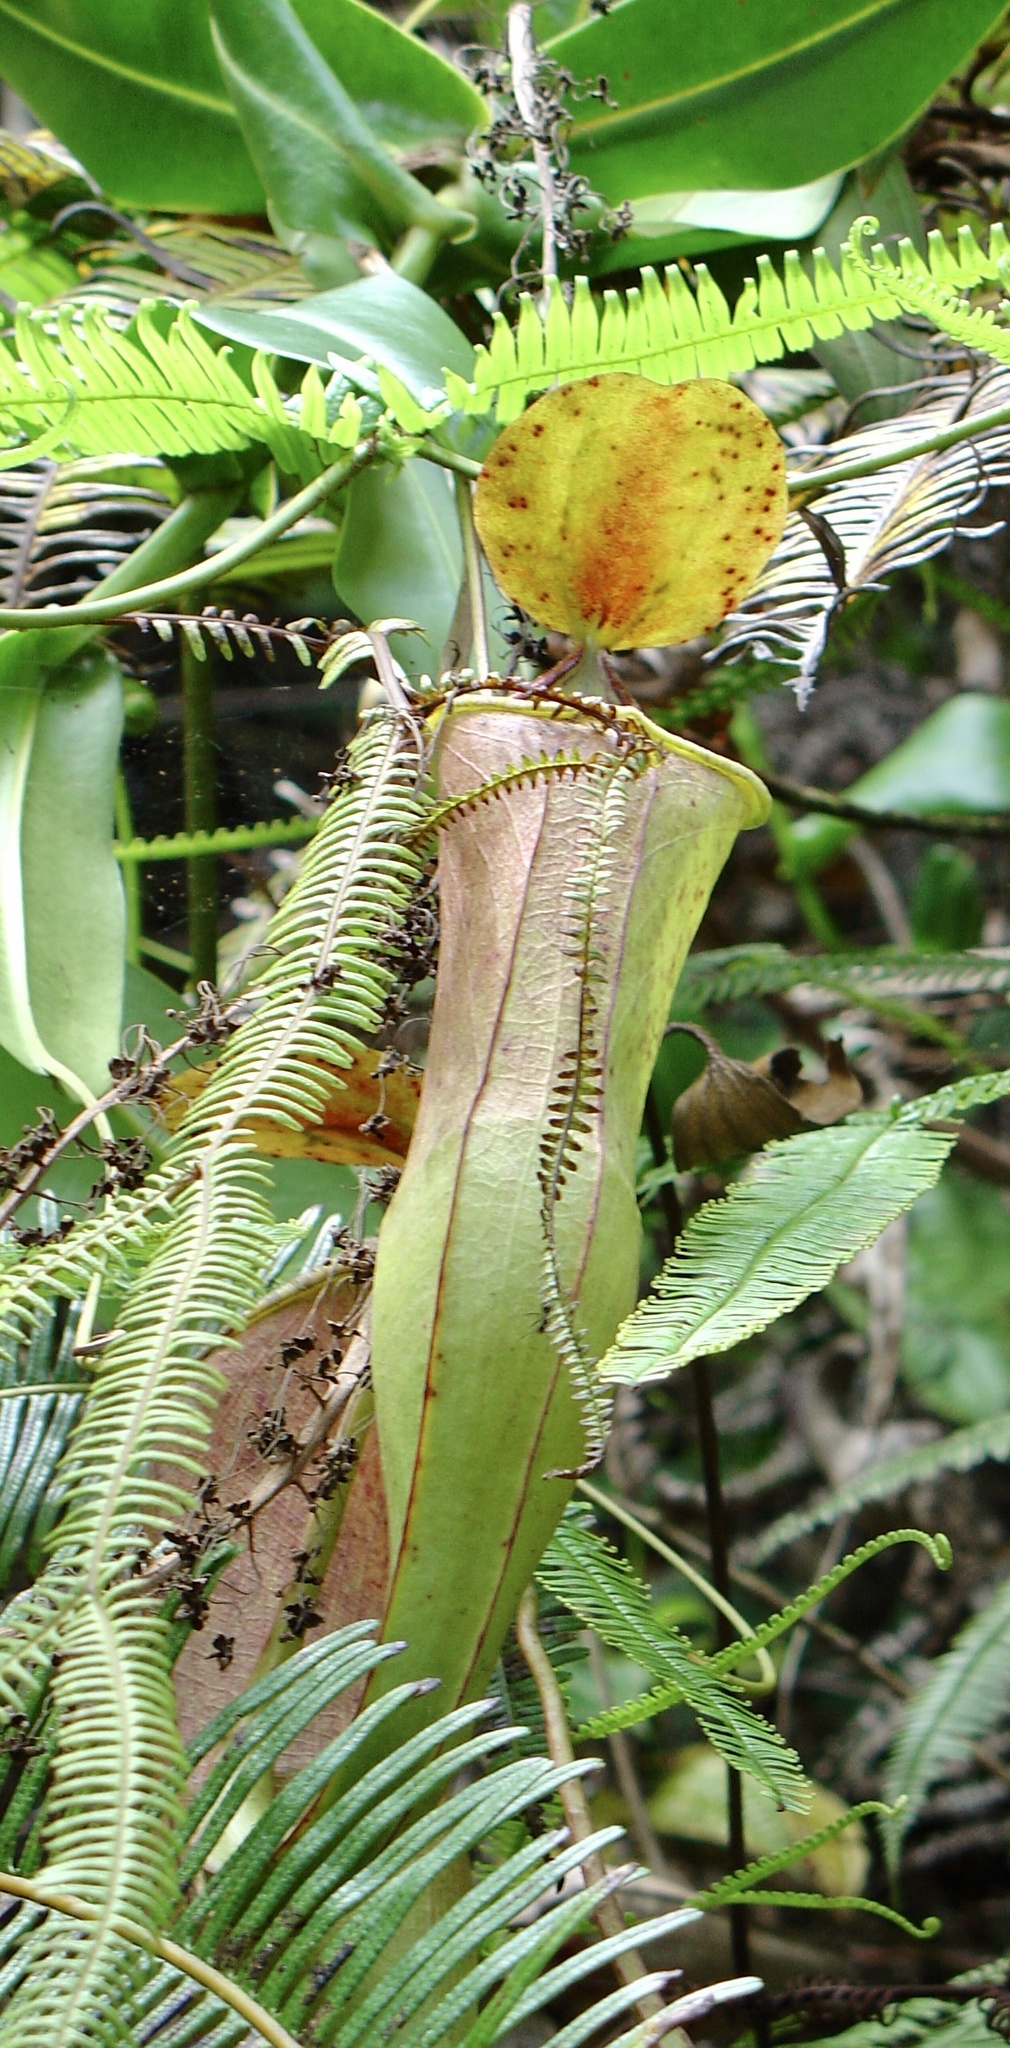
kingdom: Plantae
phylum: Tracheophyta
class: Magnoliopsida
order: Caryophyllales
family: Nepenthaceae
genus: Nepenthes
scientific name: Nepenthes sanguinea
